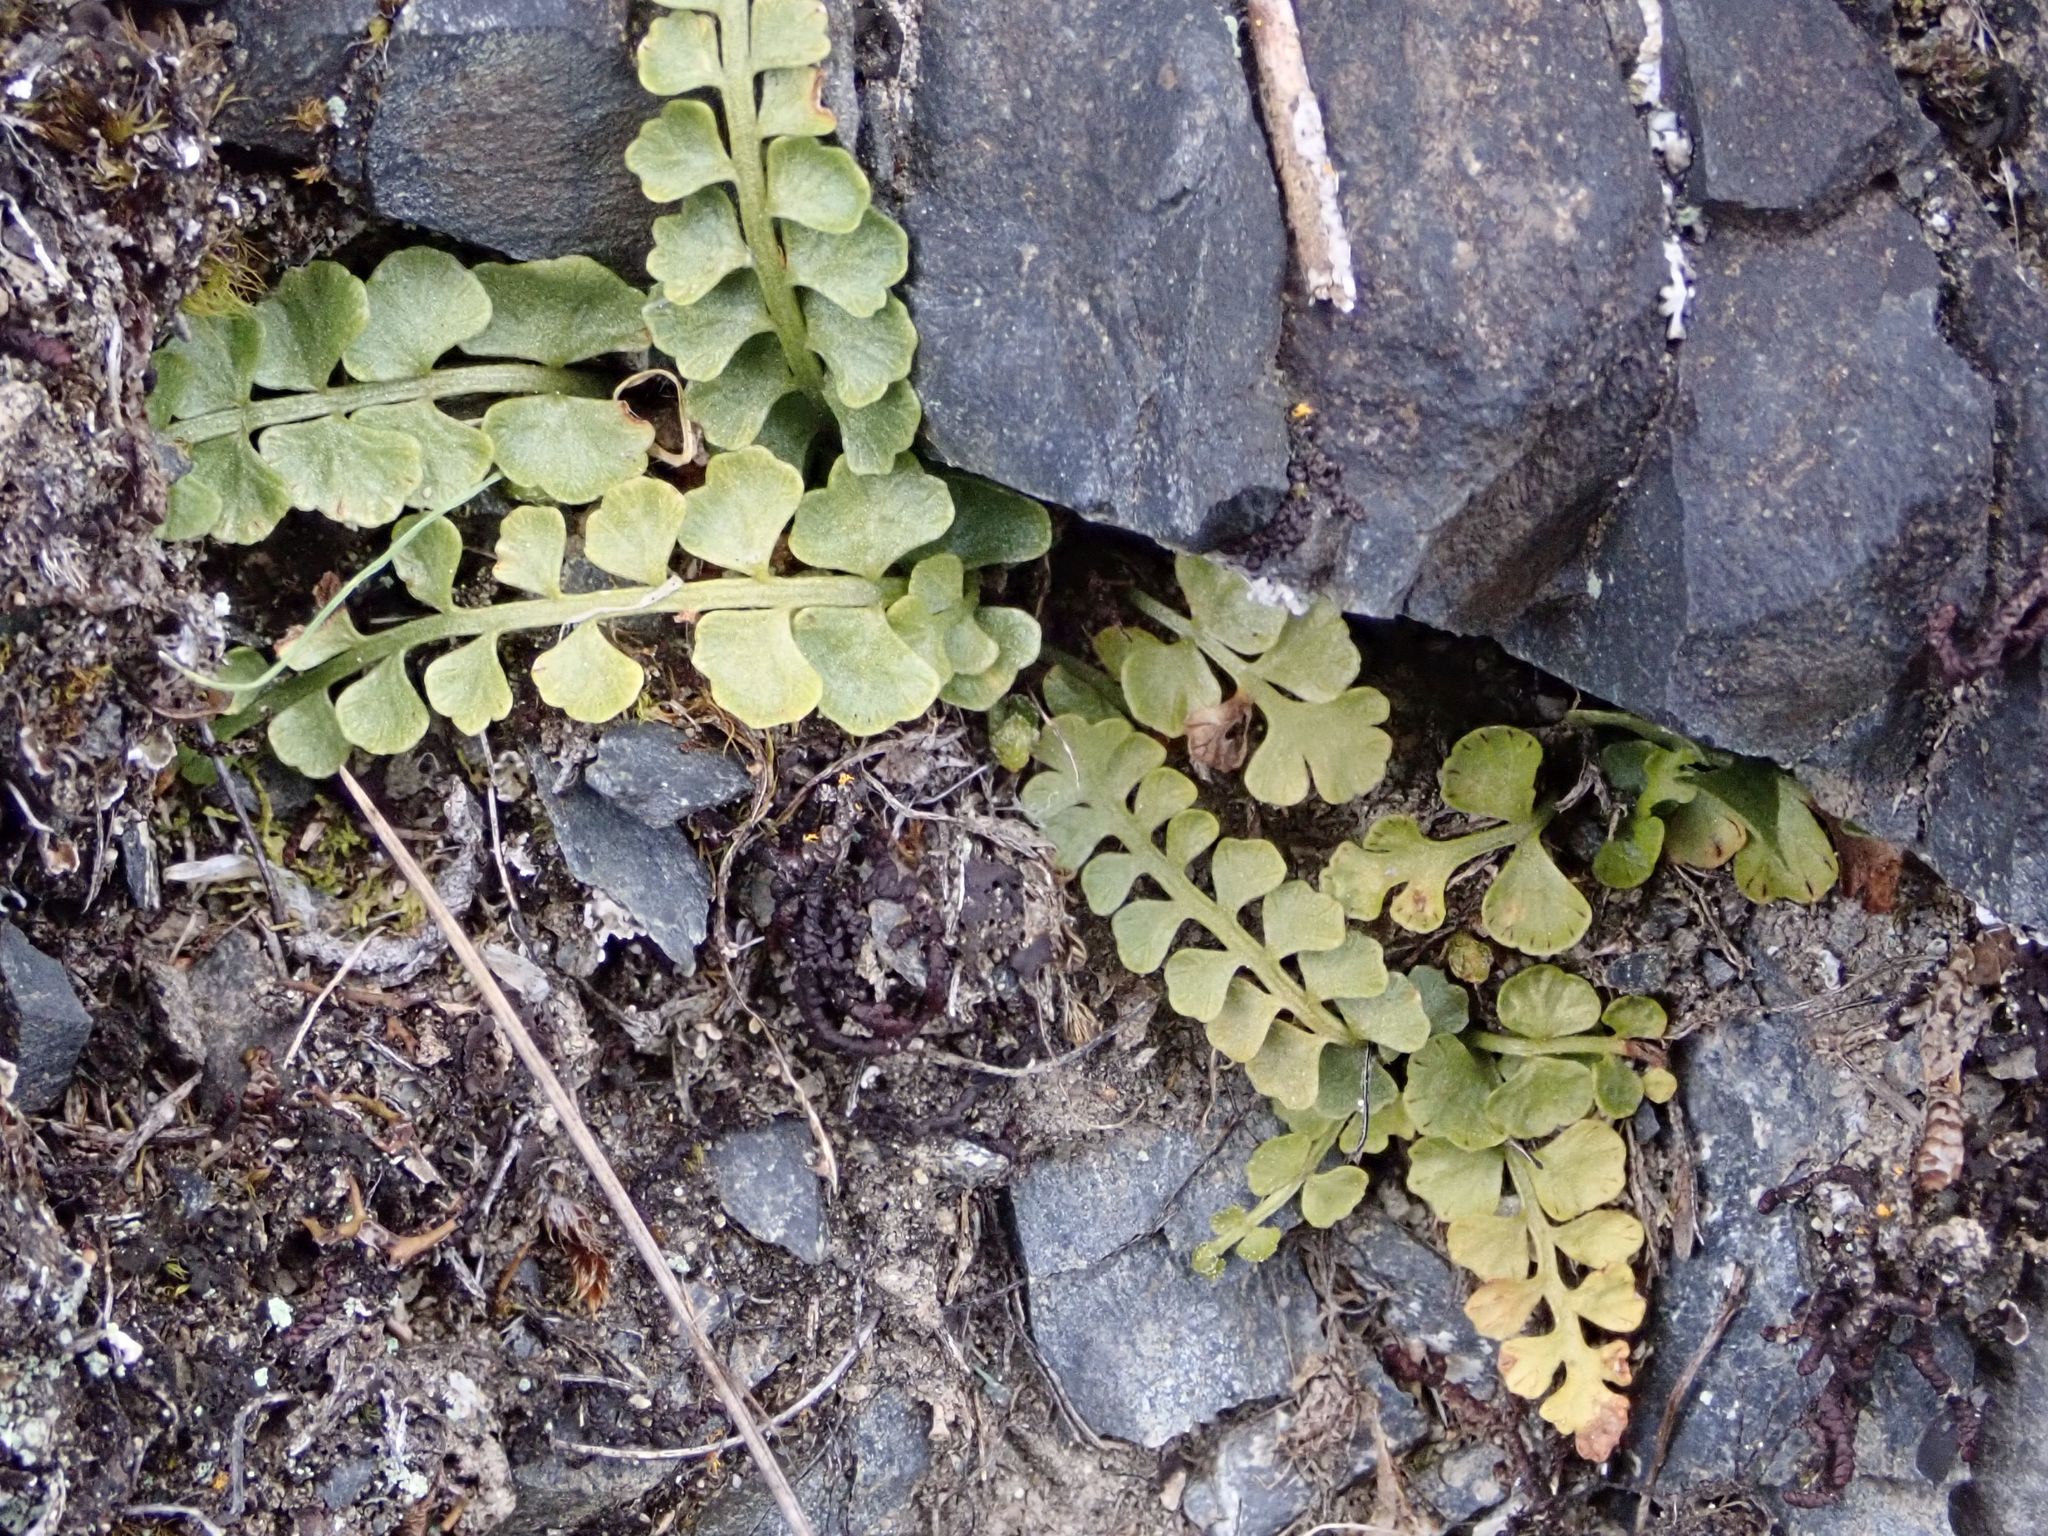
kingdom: Plantae
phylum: Tracheophyta
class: Polypodiopsida
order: Polypodiales
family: Aspleniaceae
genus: Asplenium
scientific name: Asplenium flabellifolium
